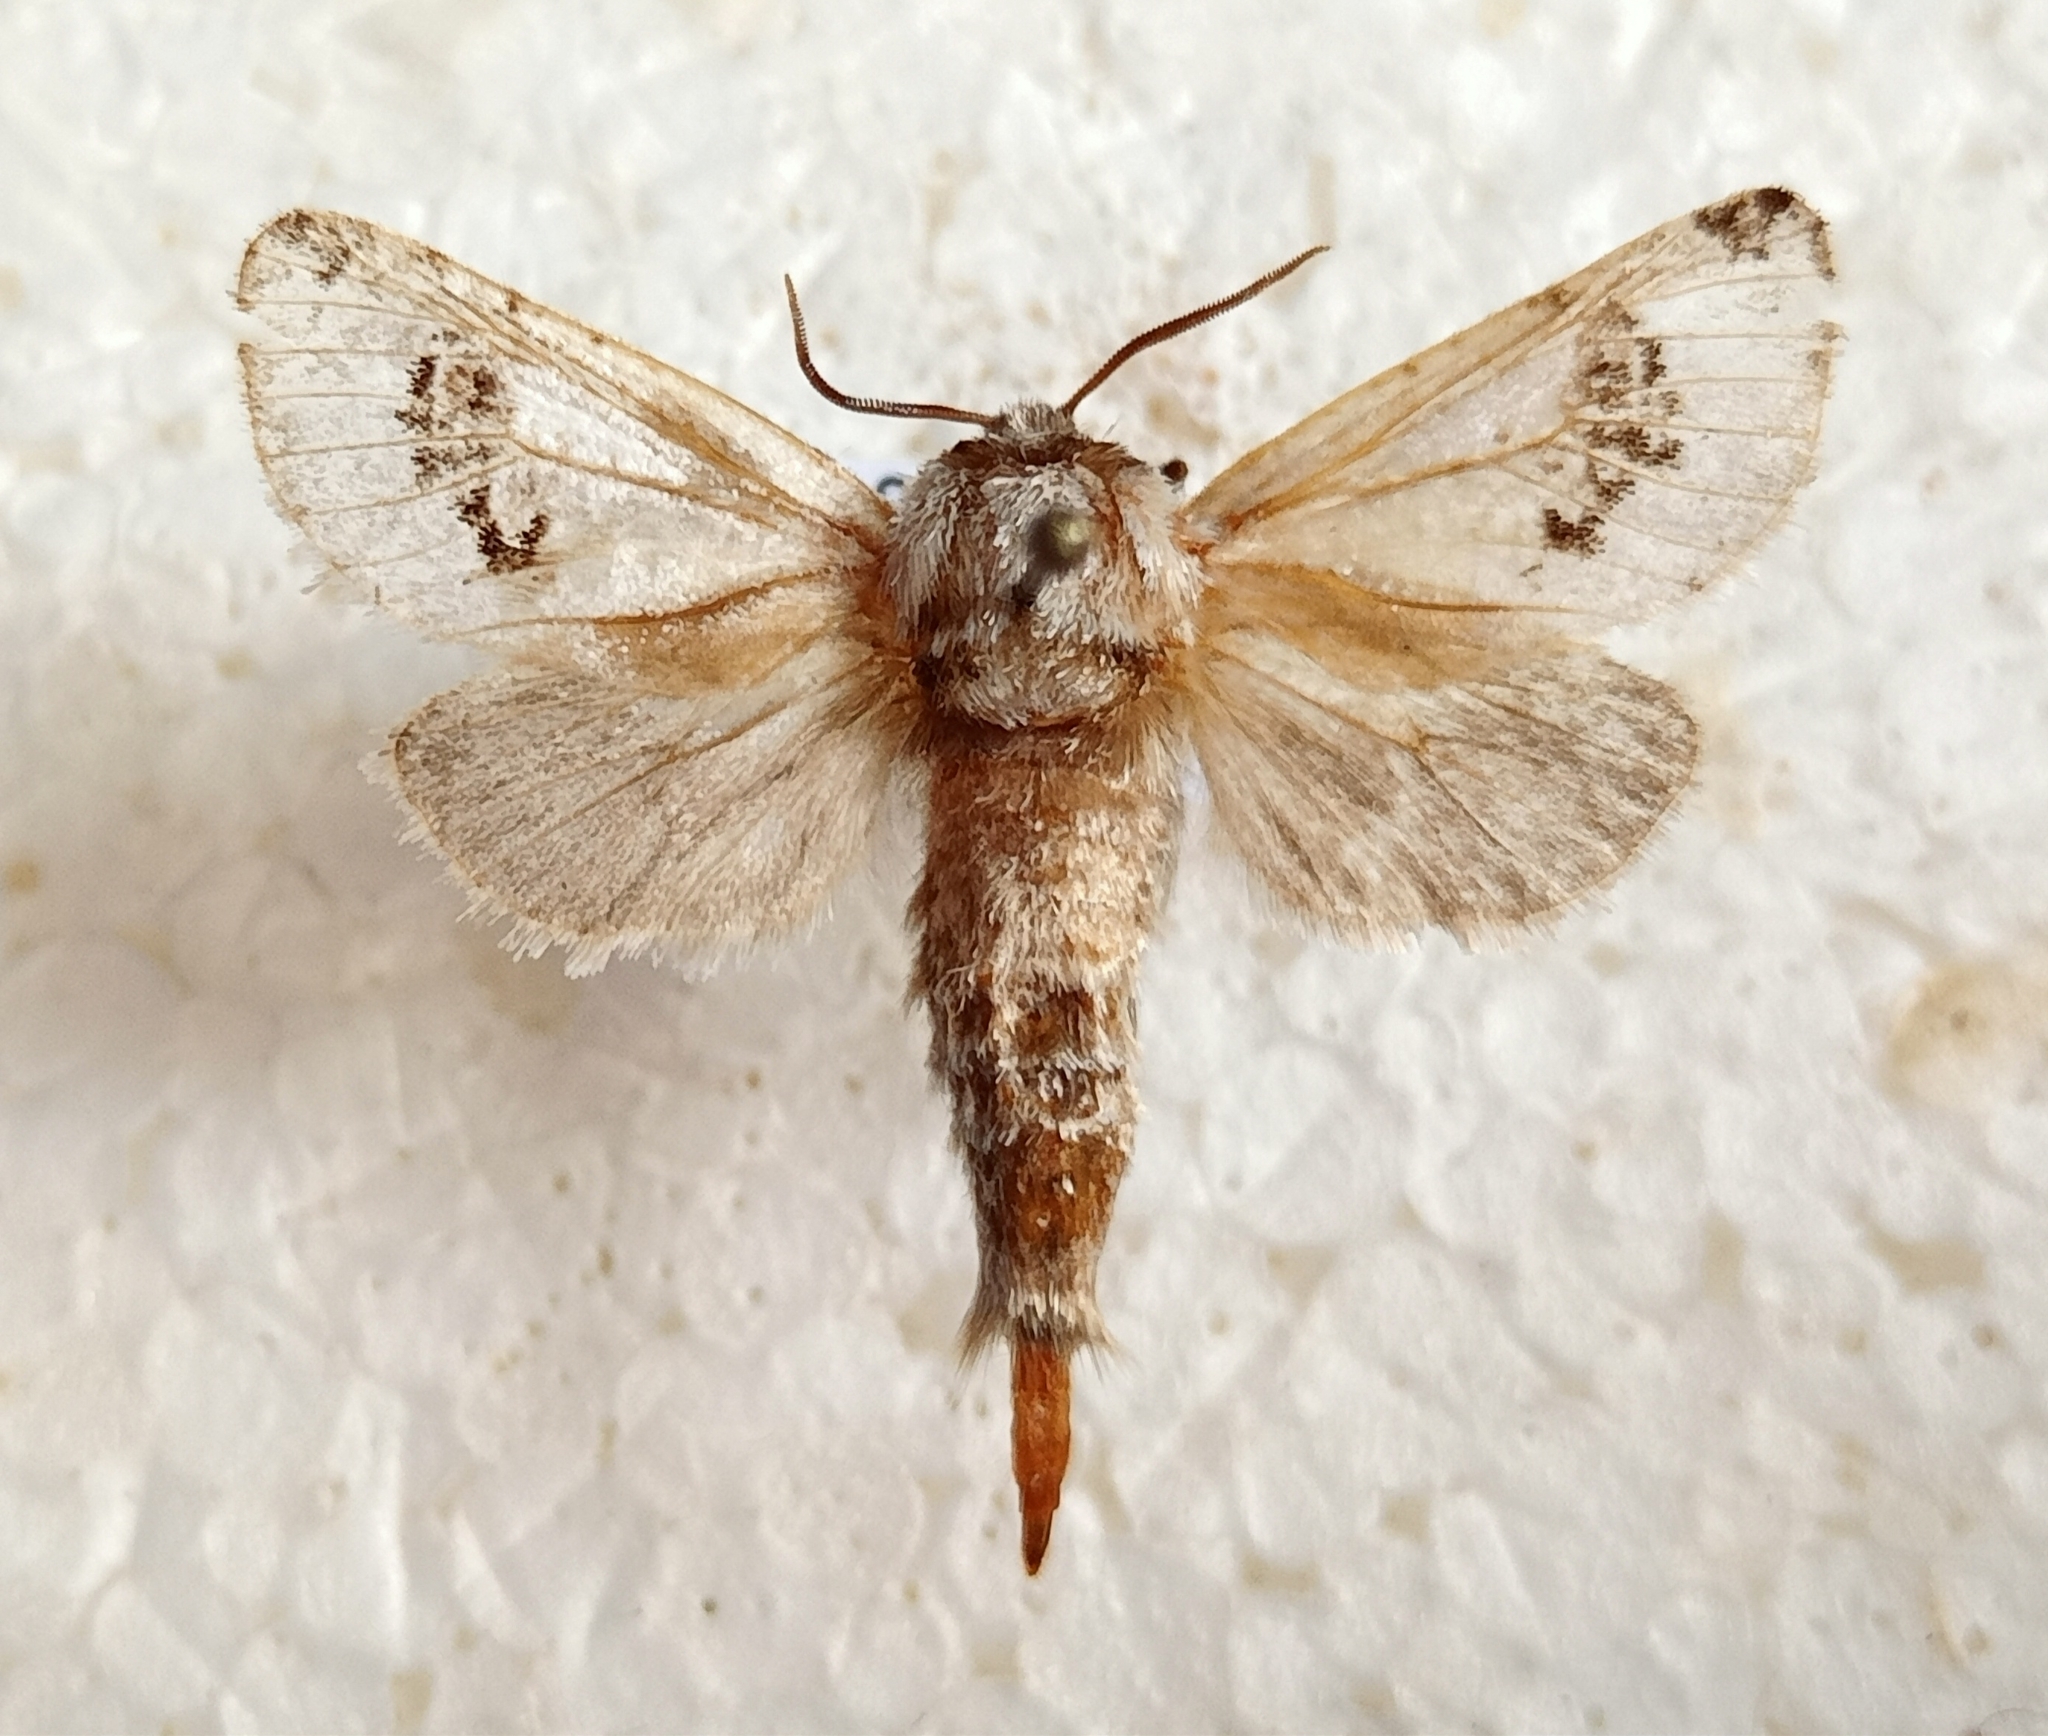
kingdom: Animalia
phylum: Arthropoda
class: Insecta
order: Lepidoptera
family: Cossidae
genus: Parahypopta
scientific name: Parahypopta caestrum
